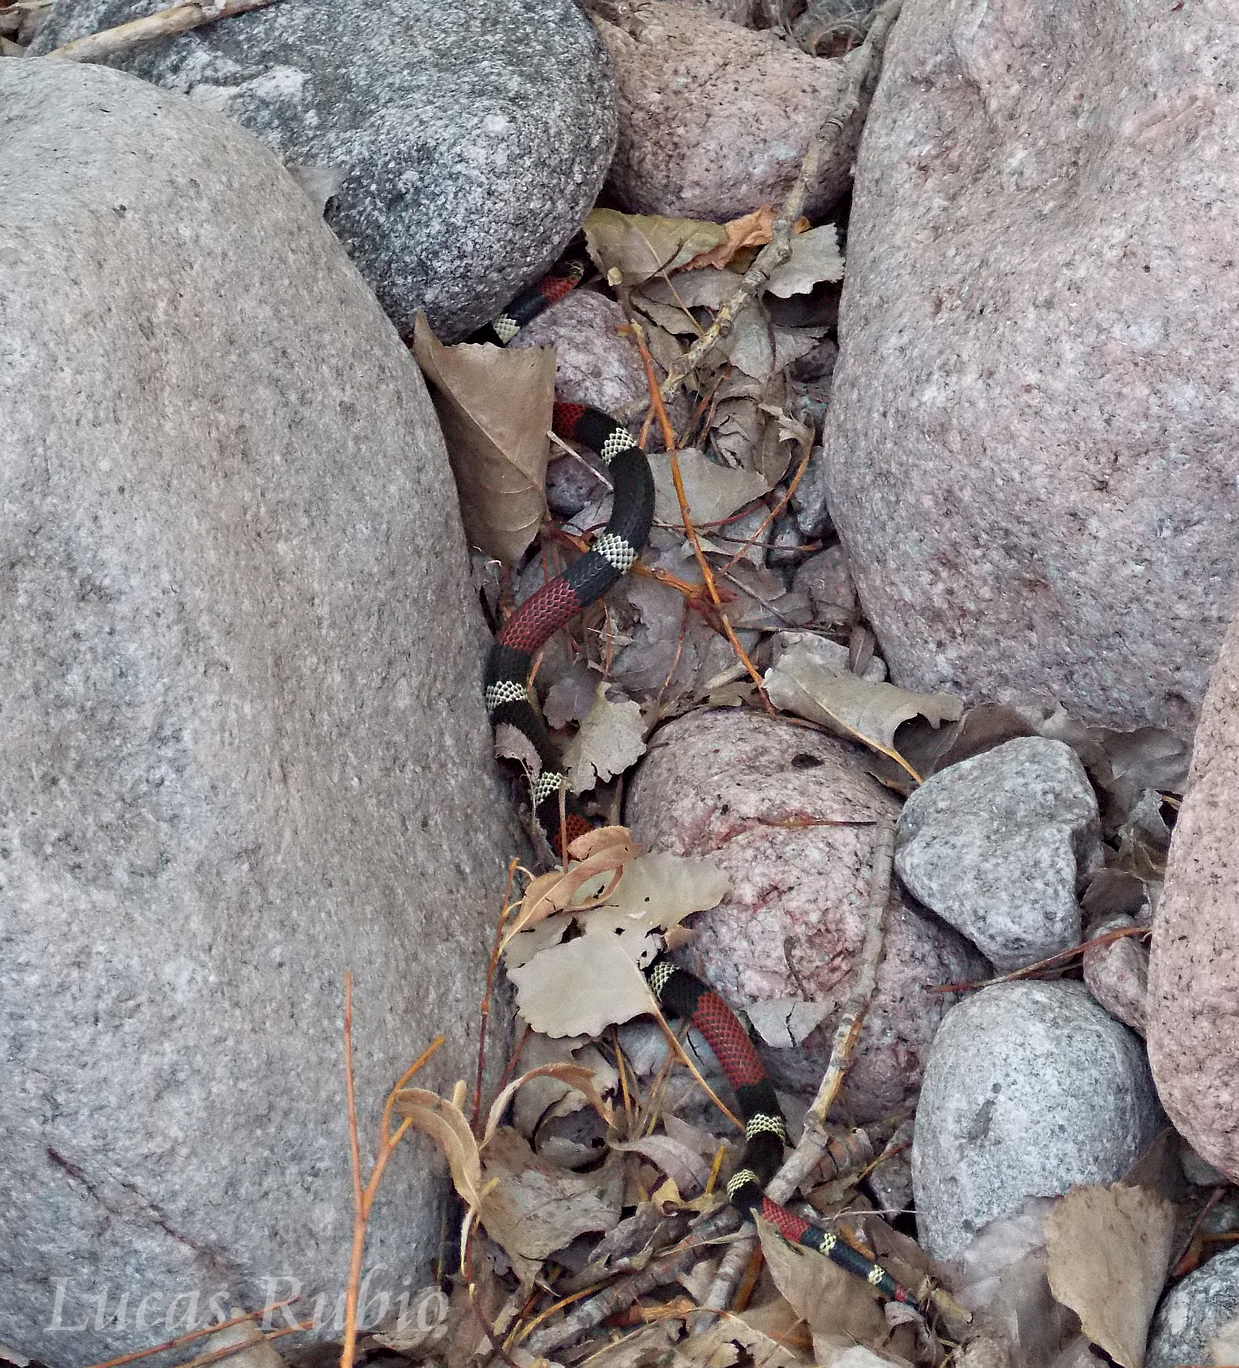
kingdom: Animalia
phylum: Chordata
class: Squamata
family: Elapidae
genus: Micrurus
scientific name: Micrurus pyrrhocryptus
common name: Argentinian coral snake
